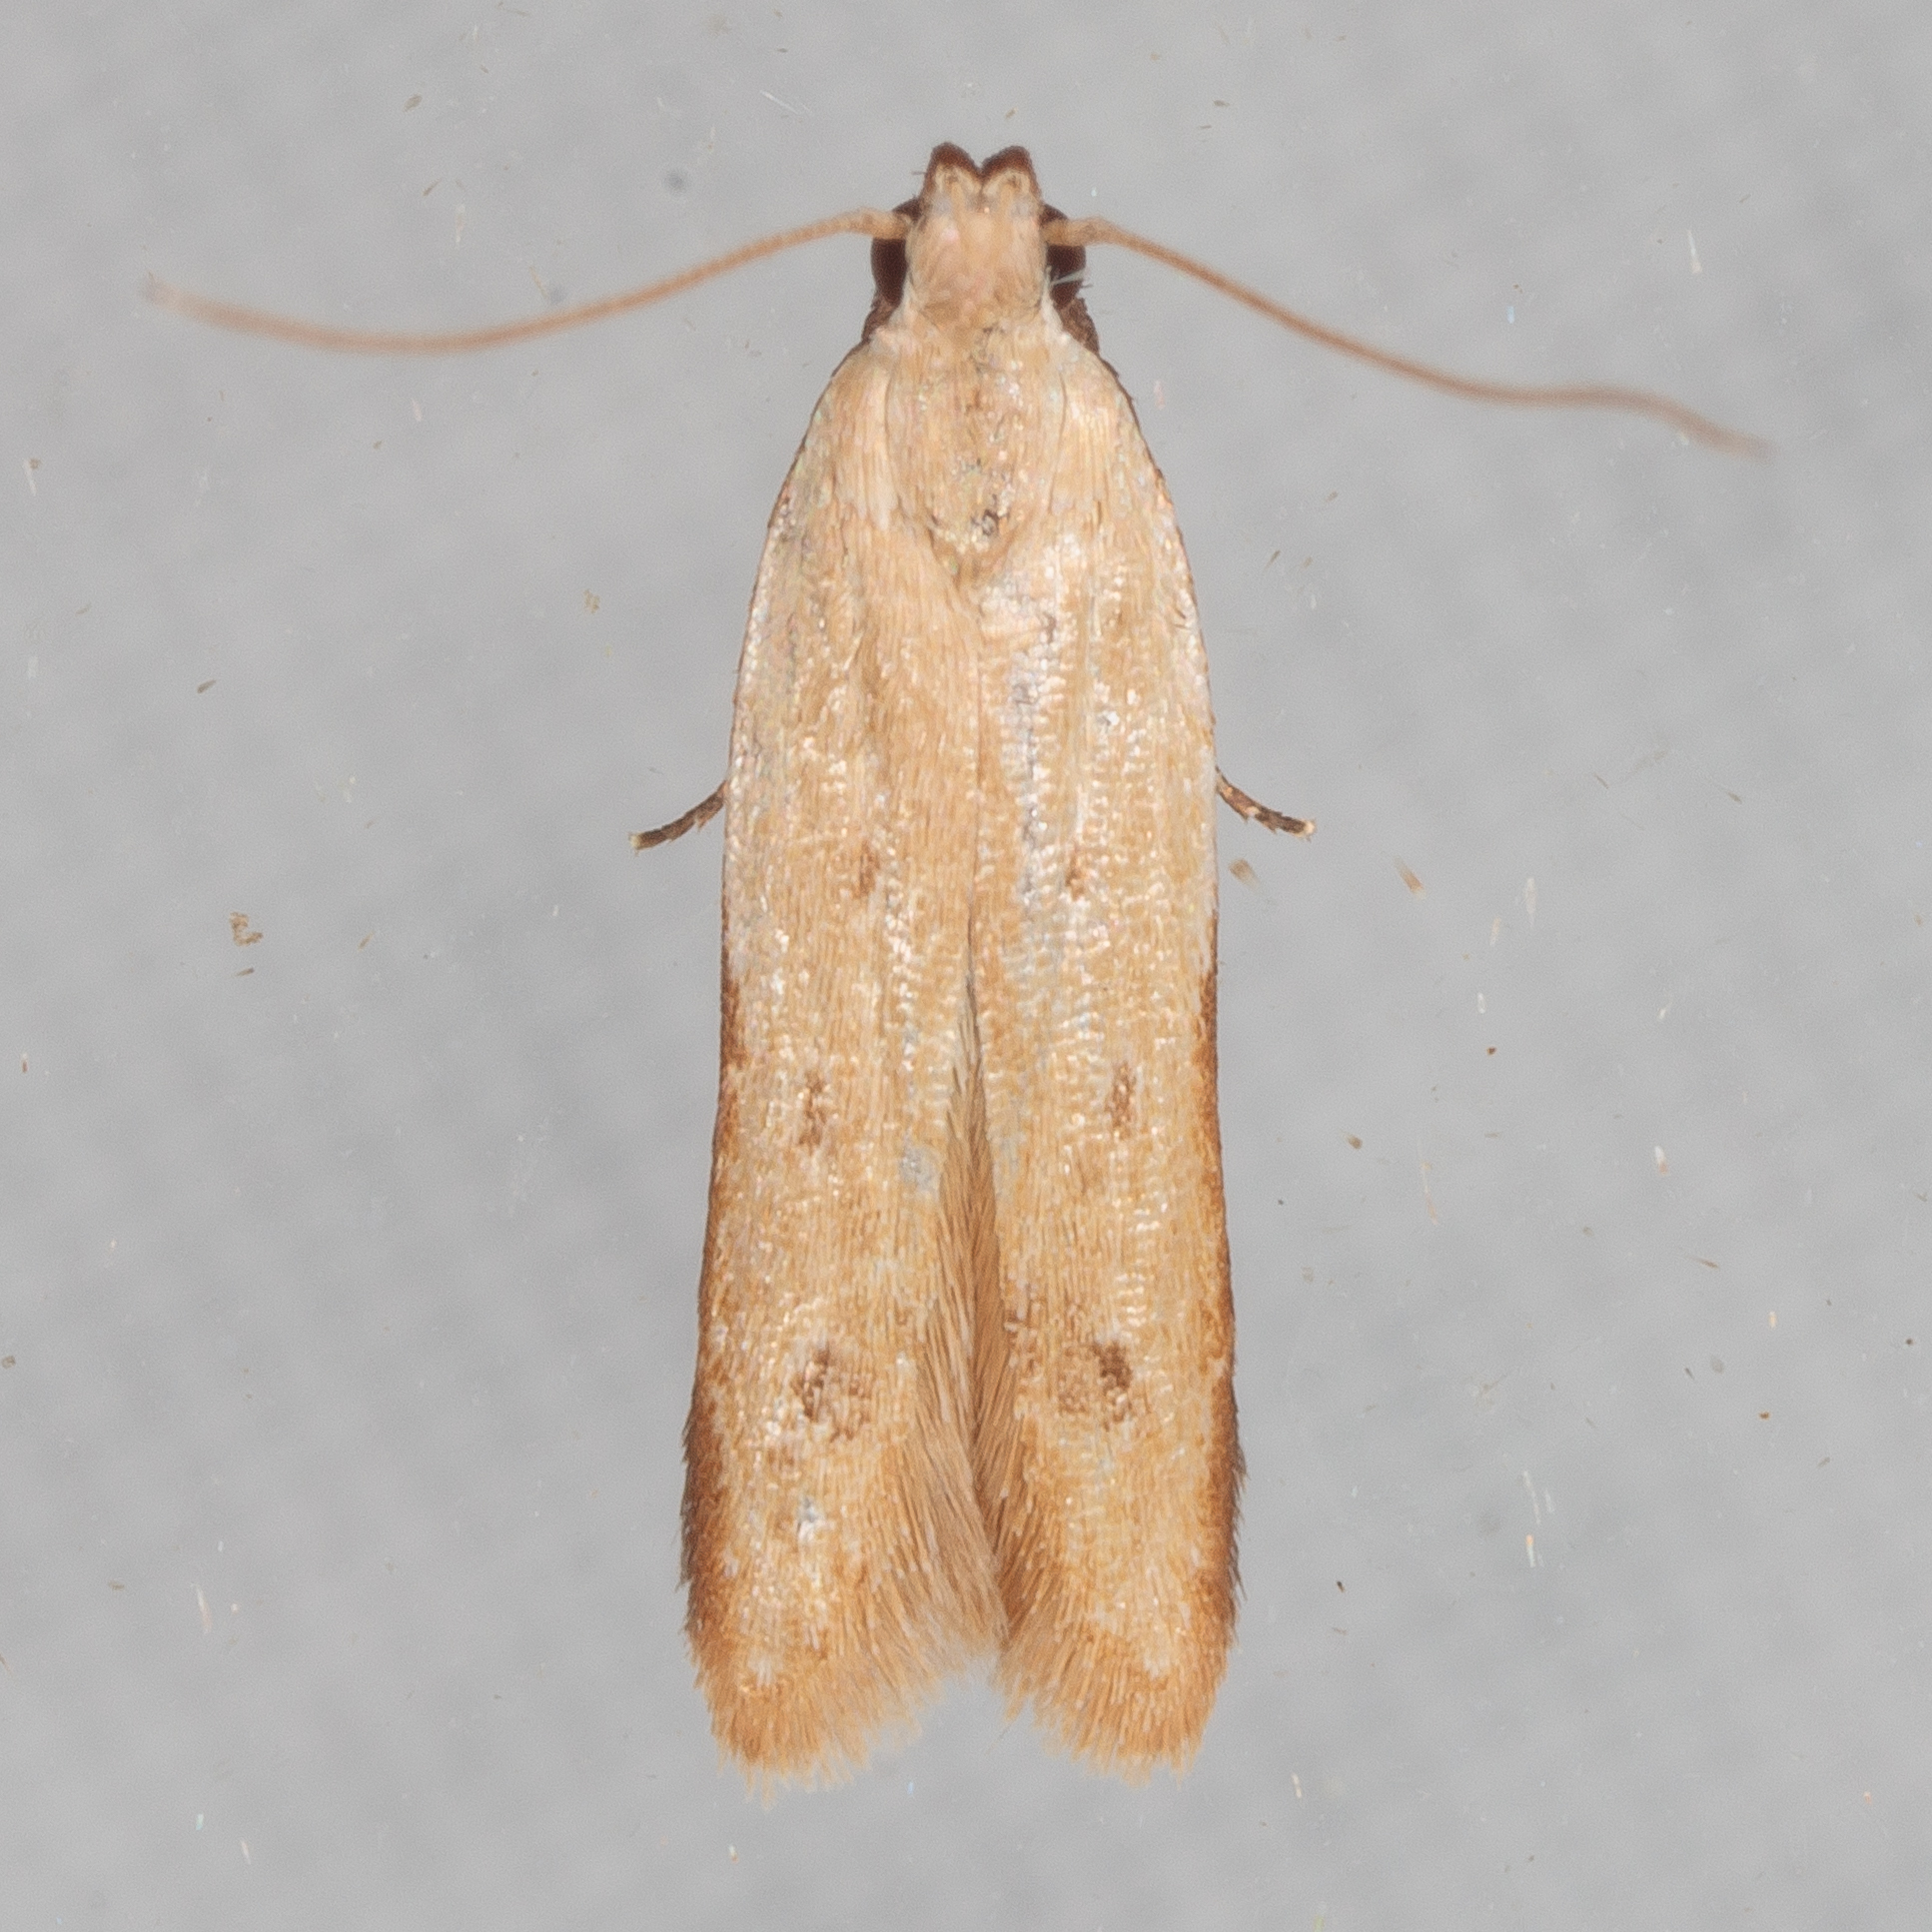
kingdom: Animalia
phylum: Arthropoda
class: Insecta
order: Lepidoptera
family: Gelechiidae
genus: Anacampsis
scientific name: Anacampsis fullonella
